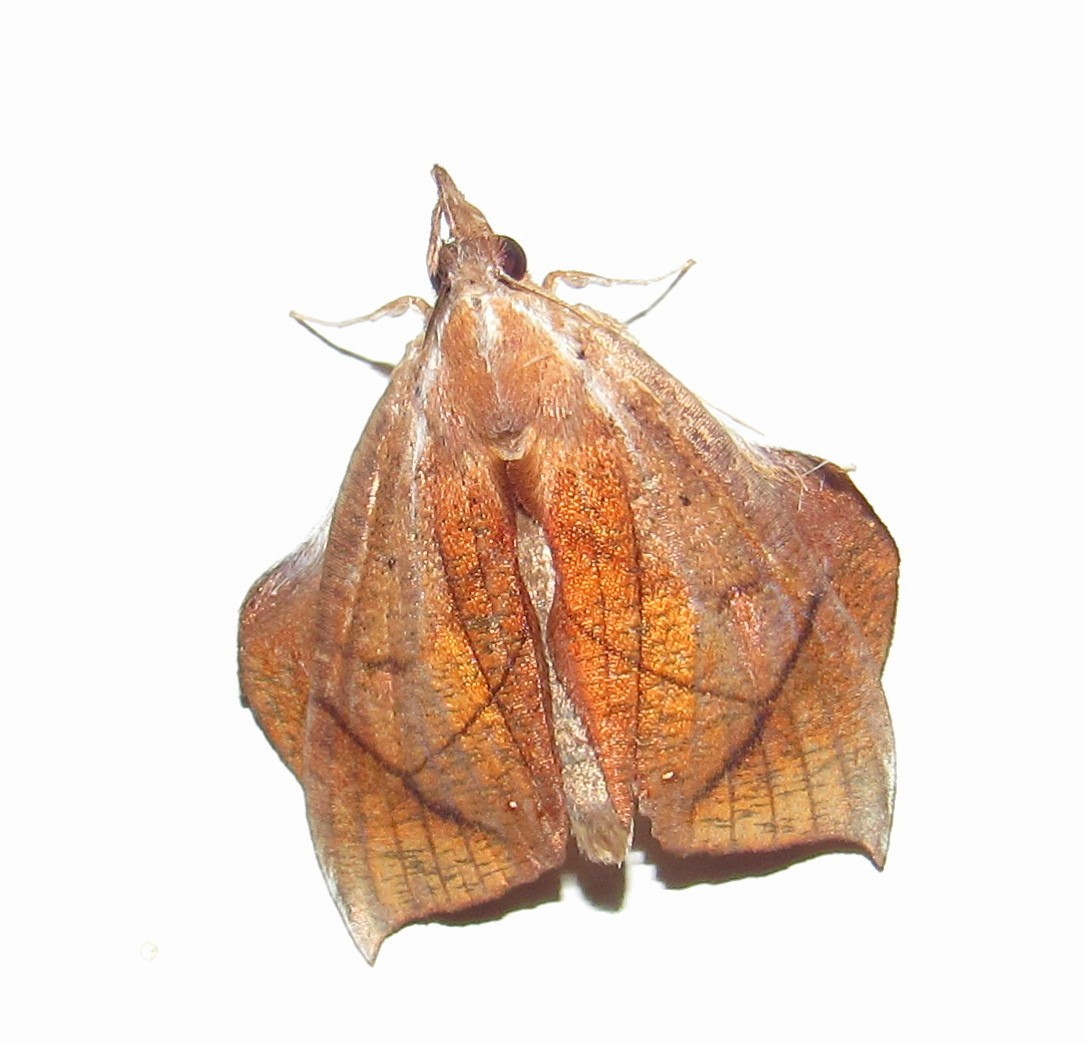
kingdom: Animalia
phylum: Arthropoda
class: Insecta
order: Lepidoptera
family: Erebidae
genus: Abolla
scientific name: Abolla pellicosta
